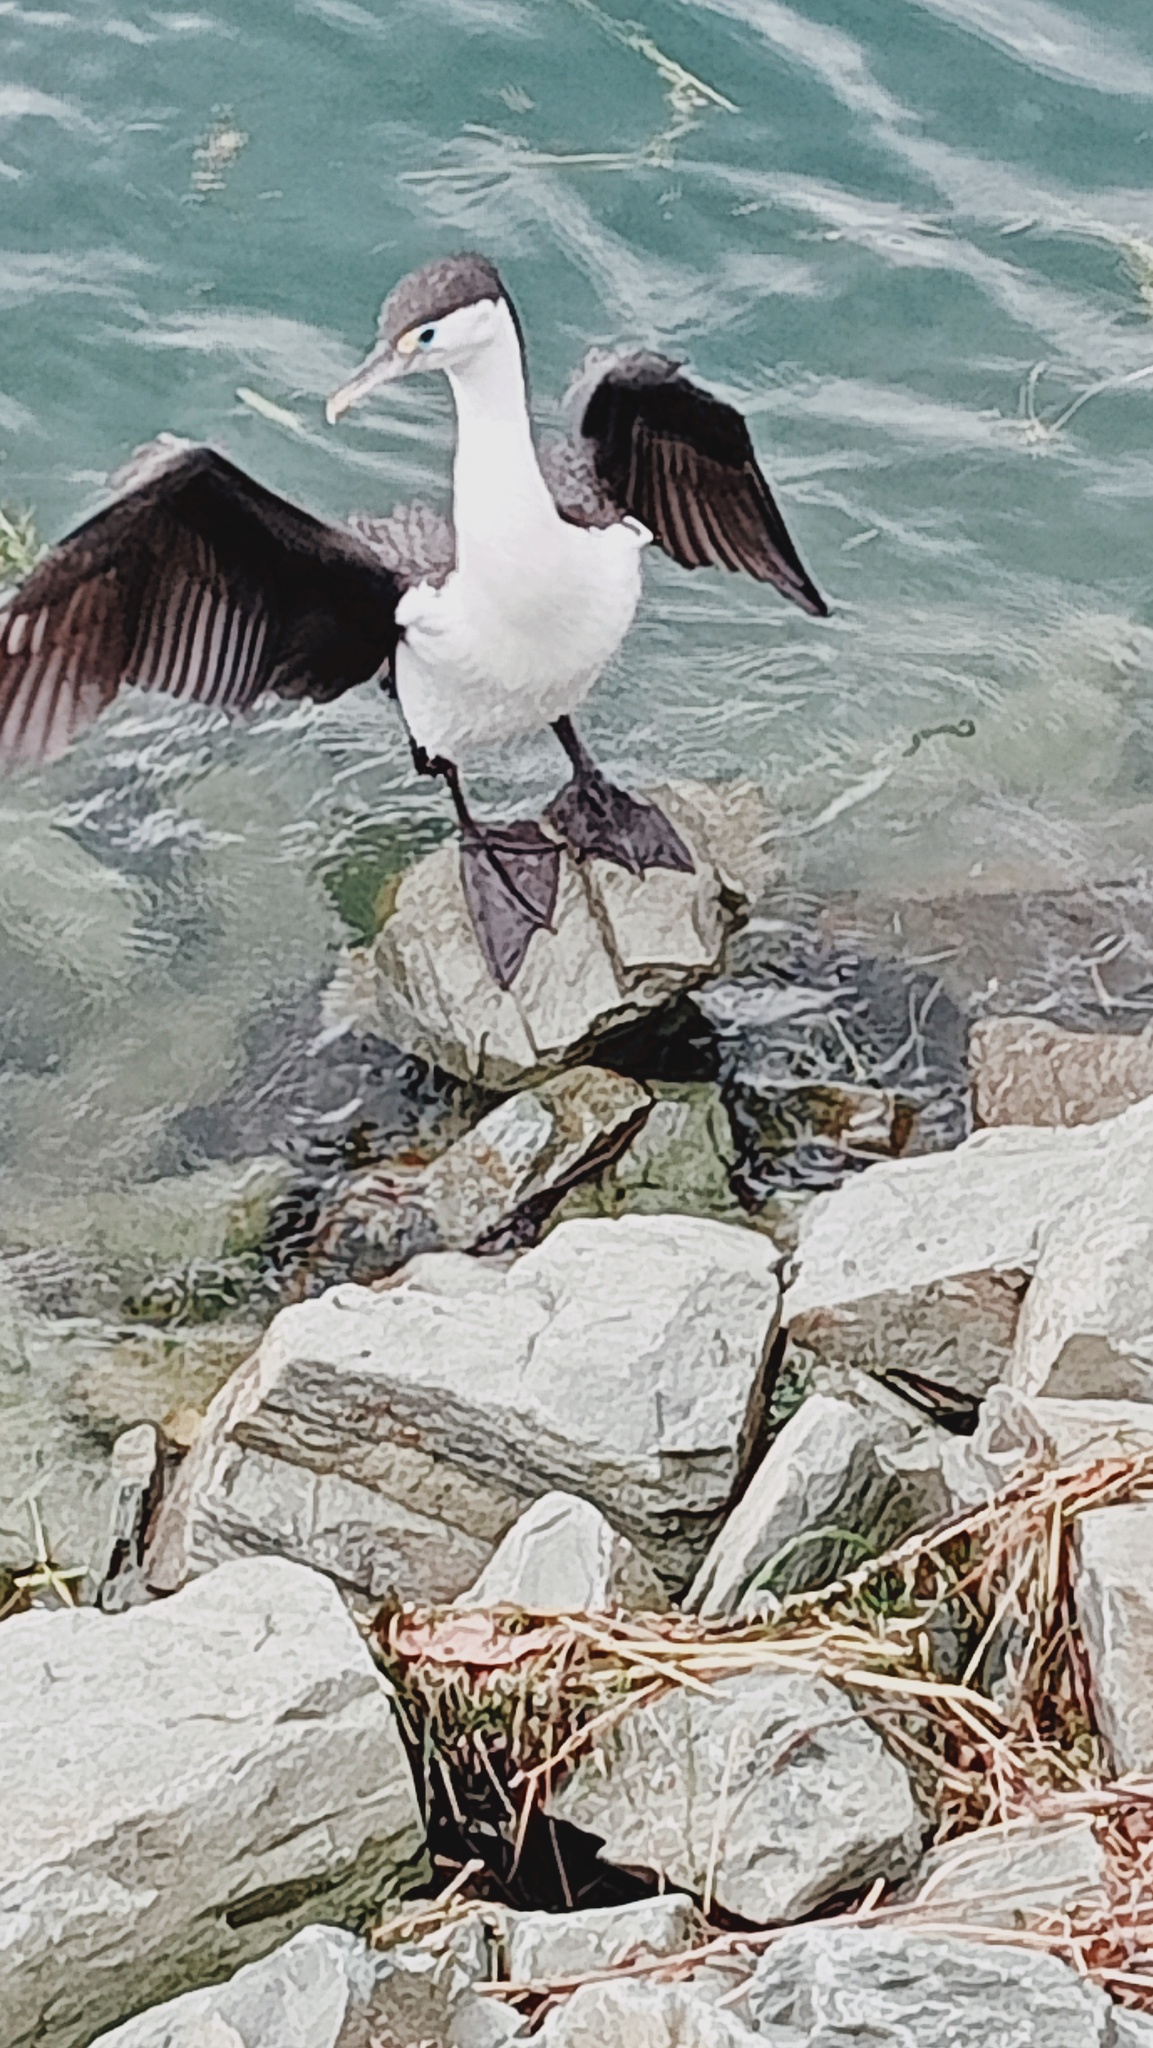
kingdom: Animalia
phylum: Chordata
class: Aves
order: Suliformes
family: Phalacrocoracidae
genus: Phalacrocorax
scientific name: Phalacrocorax varius
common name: Pied cormorant
